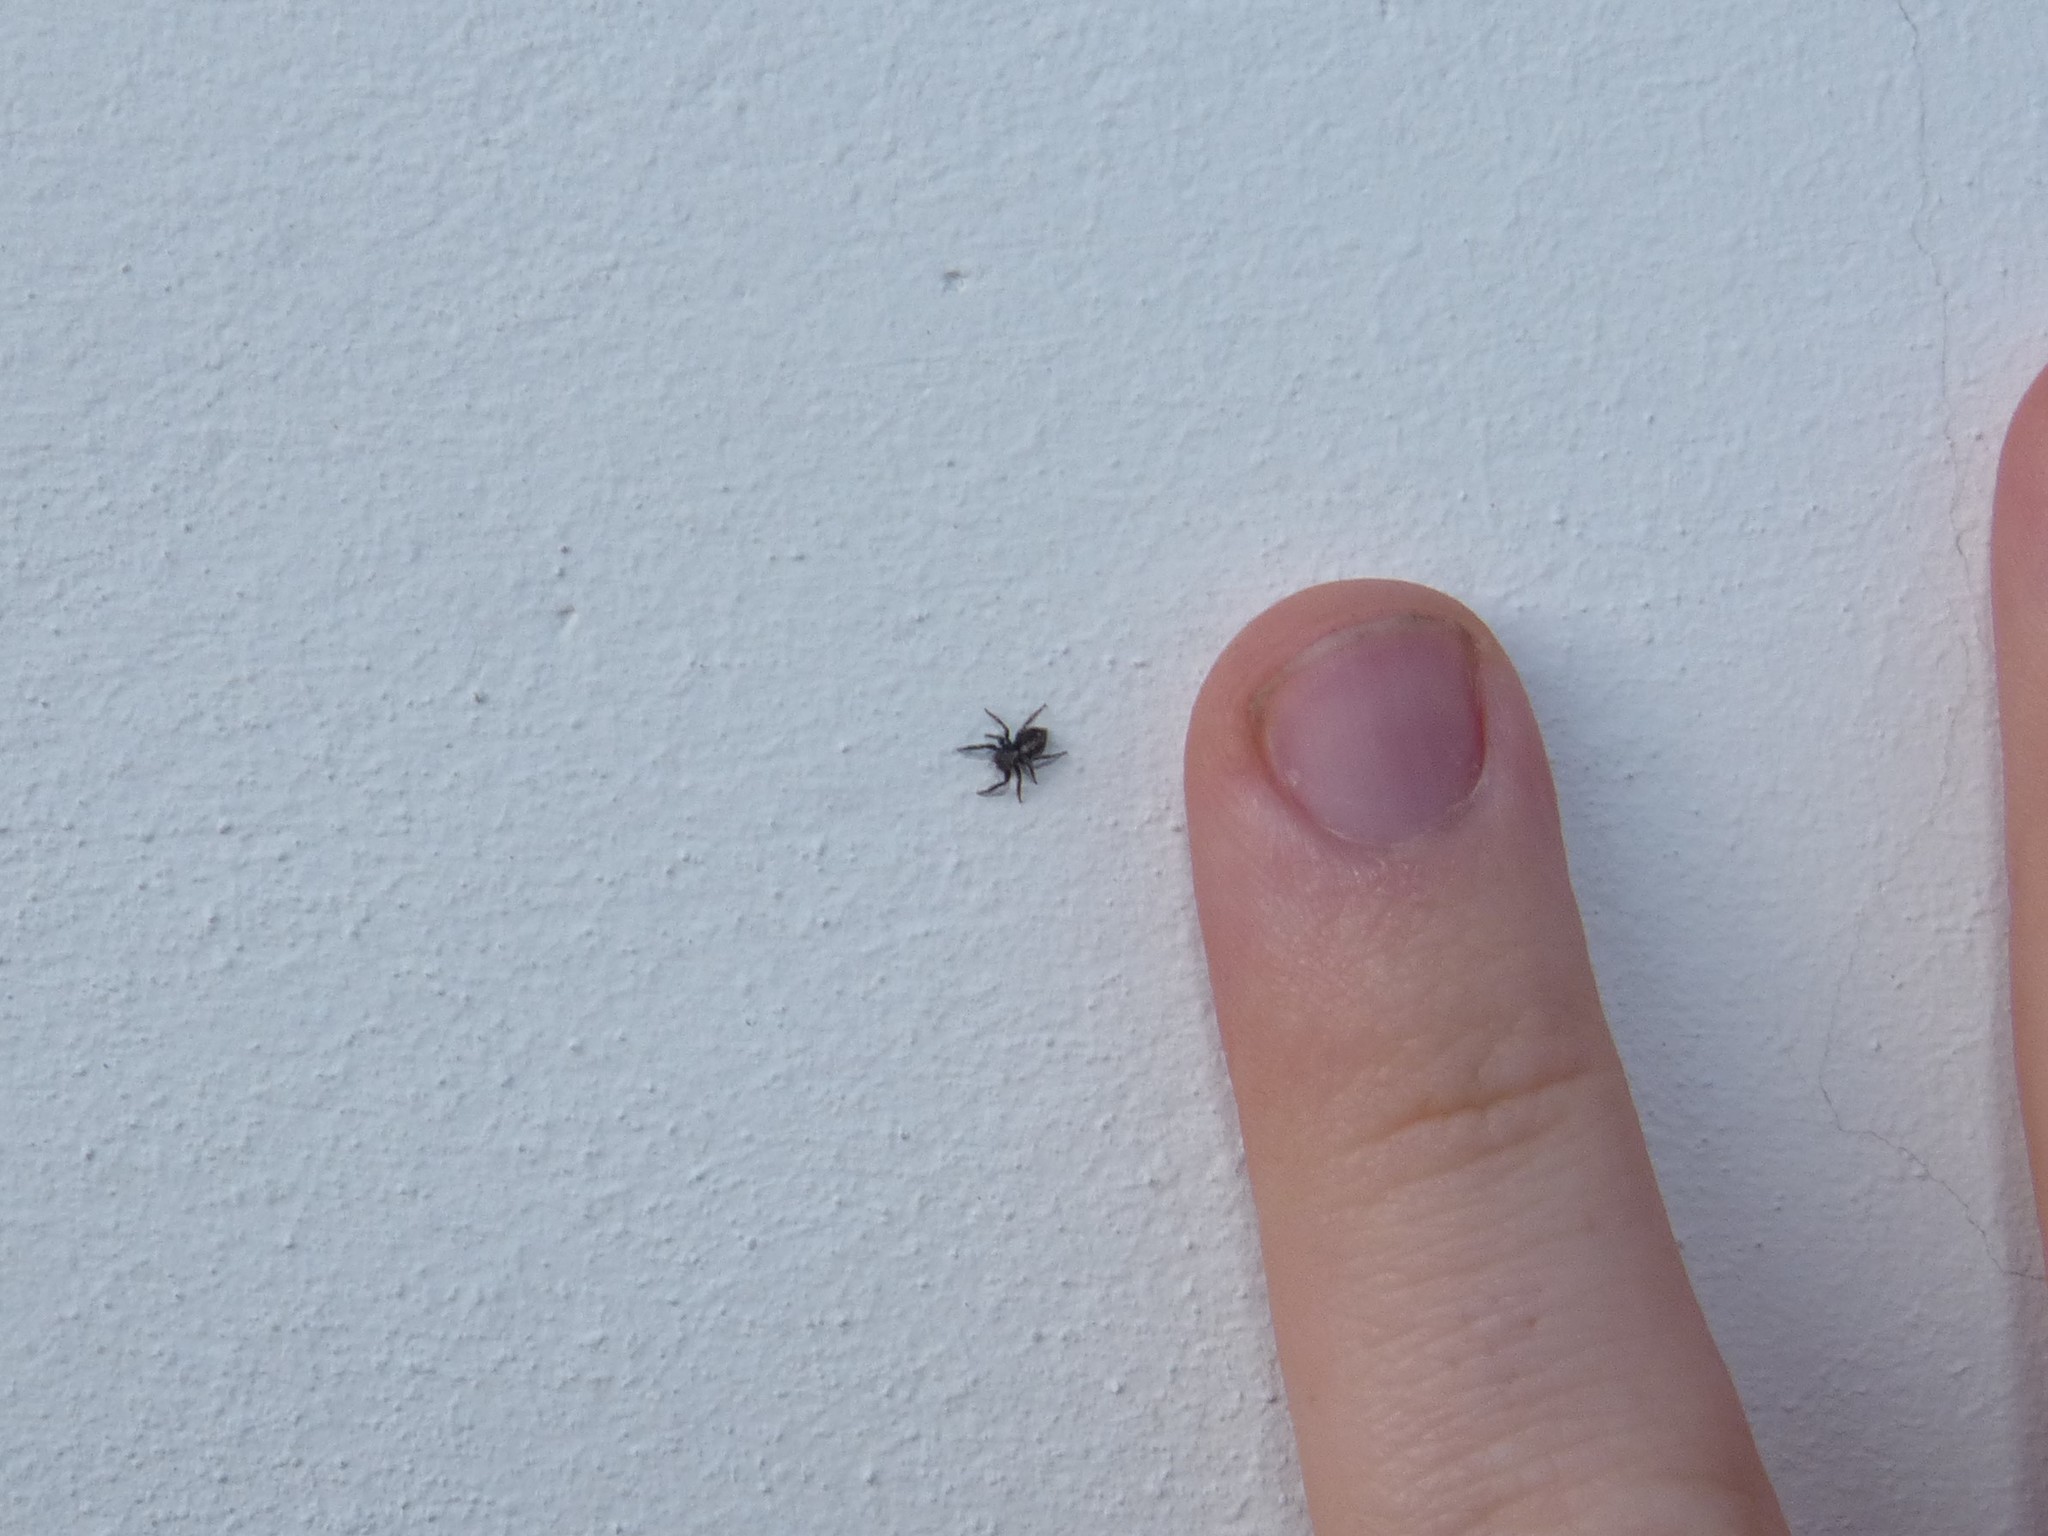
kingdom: Animalia
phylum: Arthropoda
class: Arachnida
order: Araneae
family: Salticidae
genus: Pseudeuophrys
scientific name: Pseudeuophrys lanigera
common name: Jumping spider
